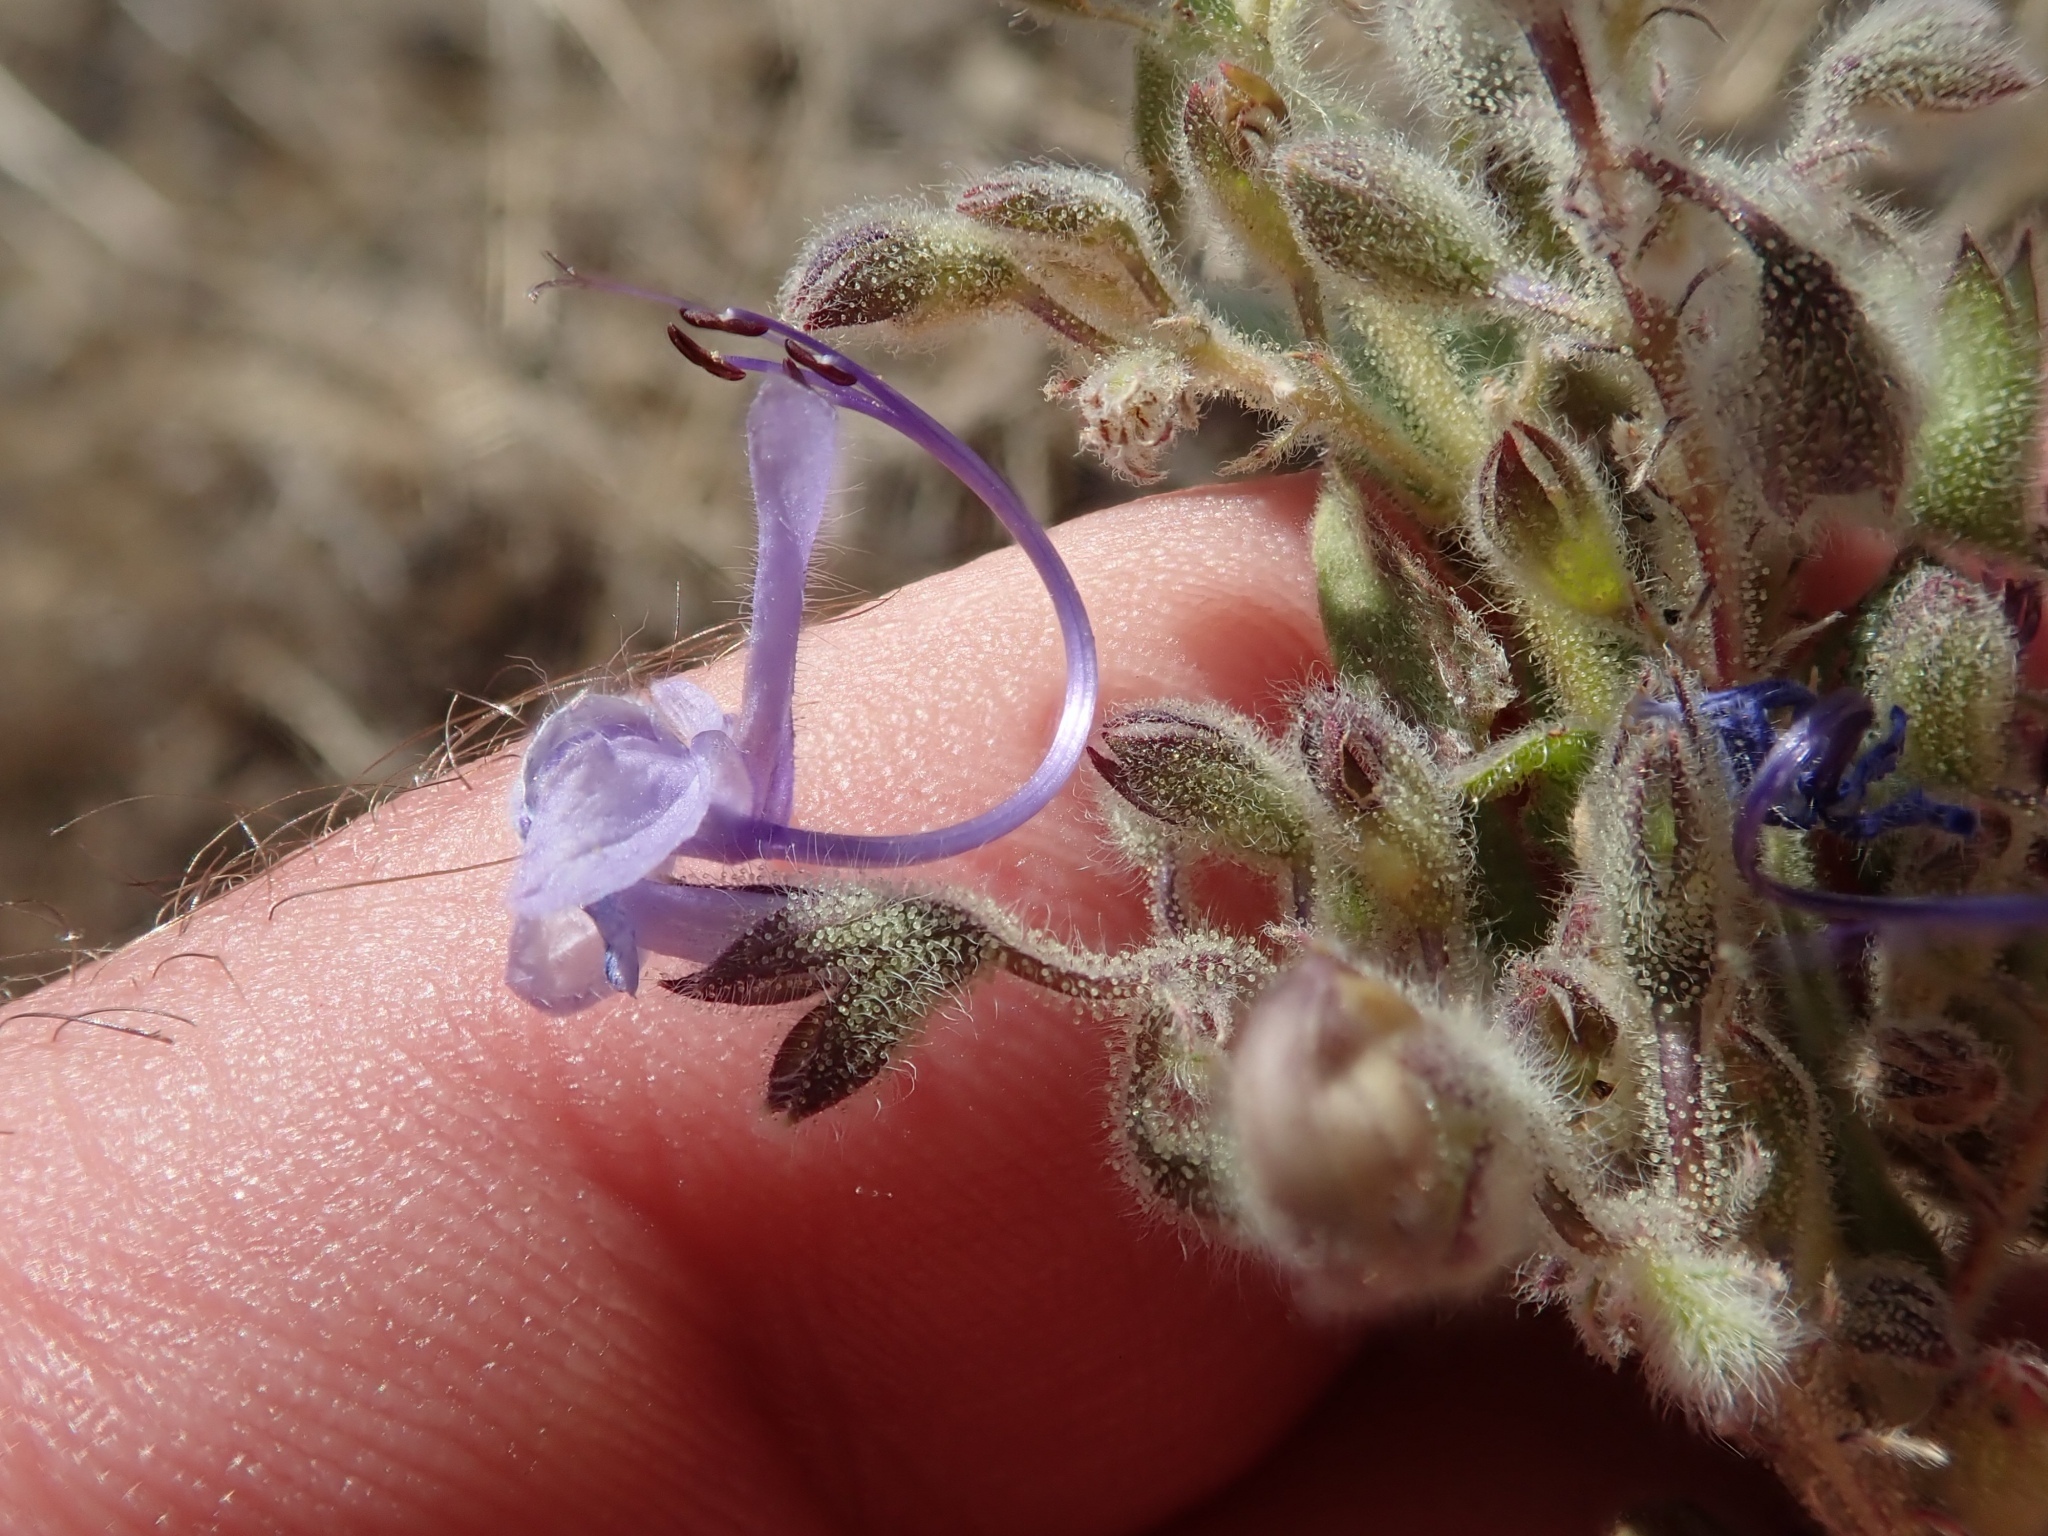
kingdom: Plantae
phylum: Tracheophyta
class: Magnoliopsida
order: Lamiales
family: Lamiaceae
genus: Trichostema
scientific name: Trichostema lanceolatum
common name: Vinegar-weed
